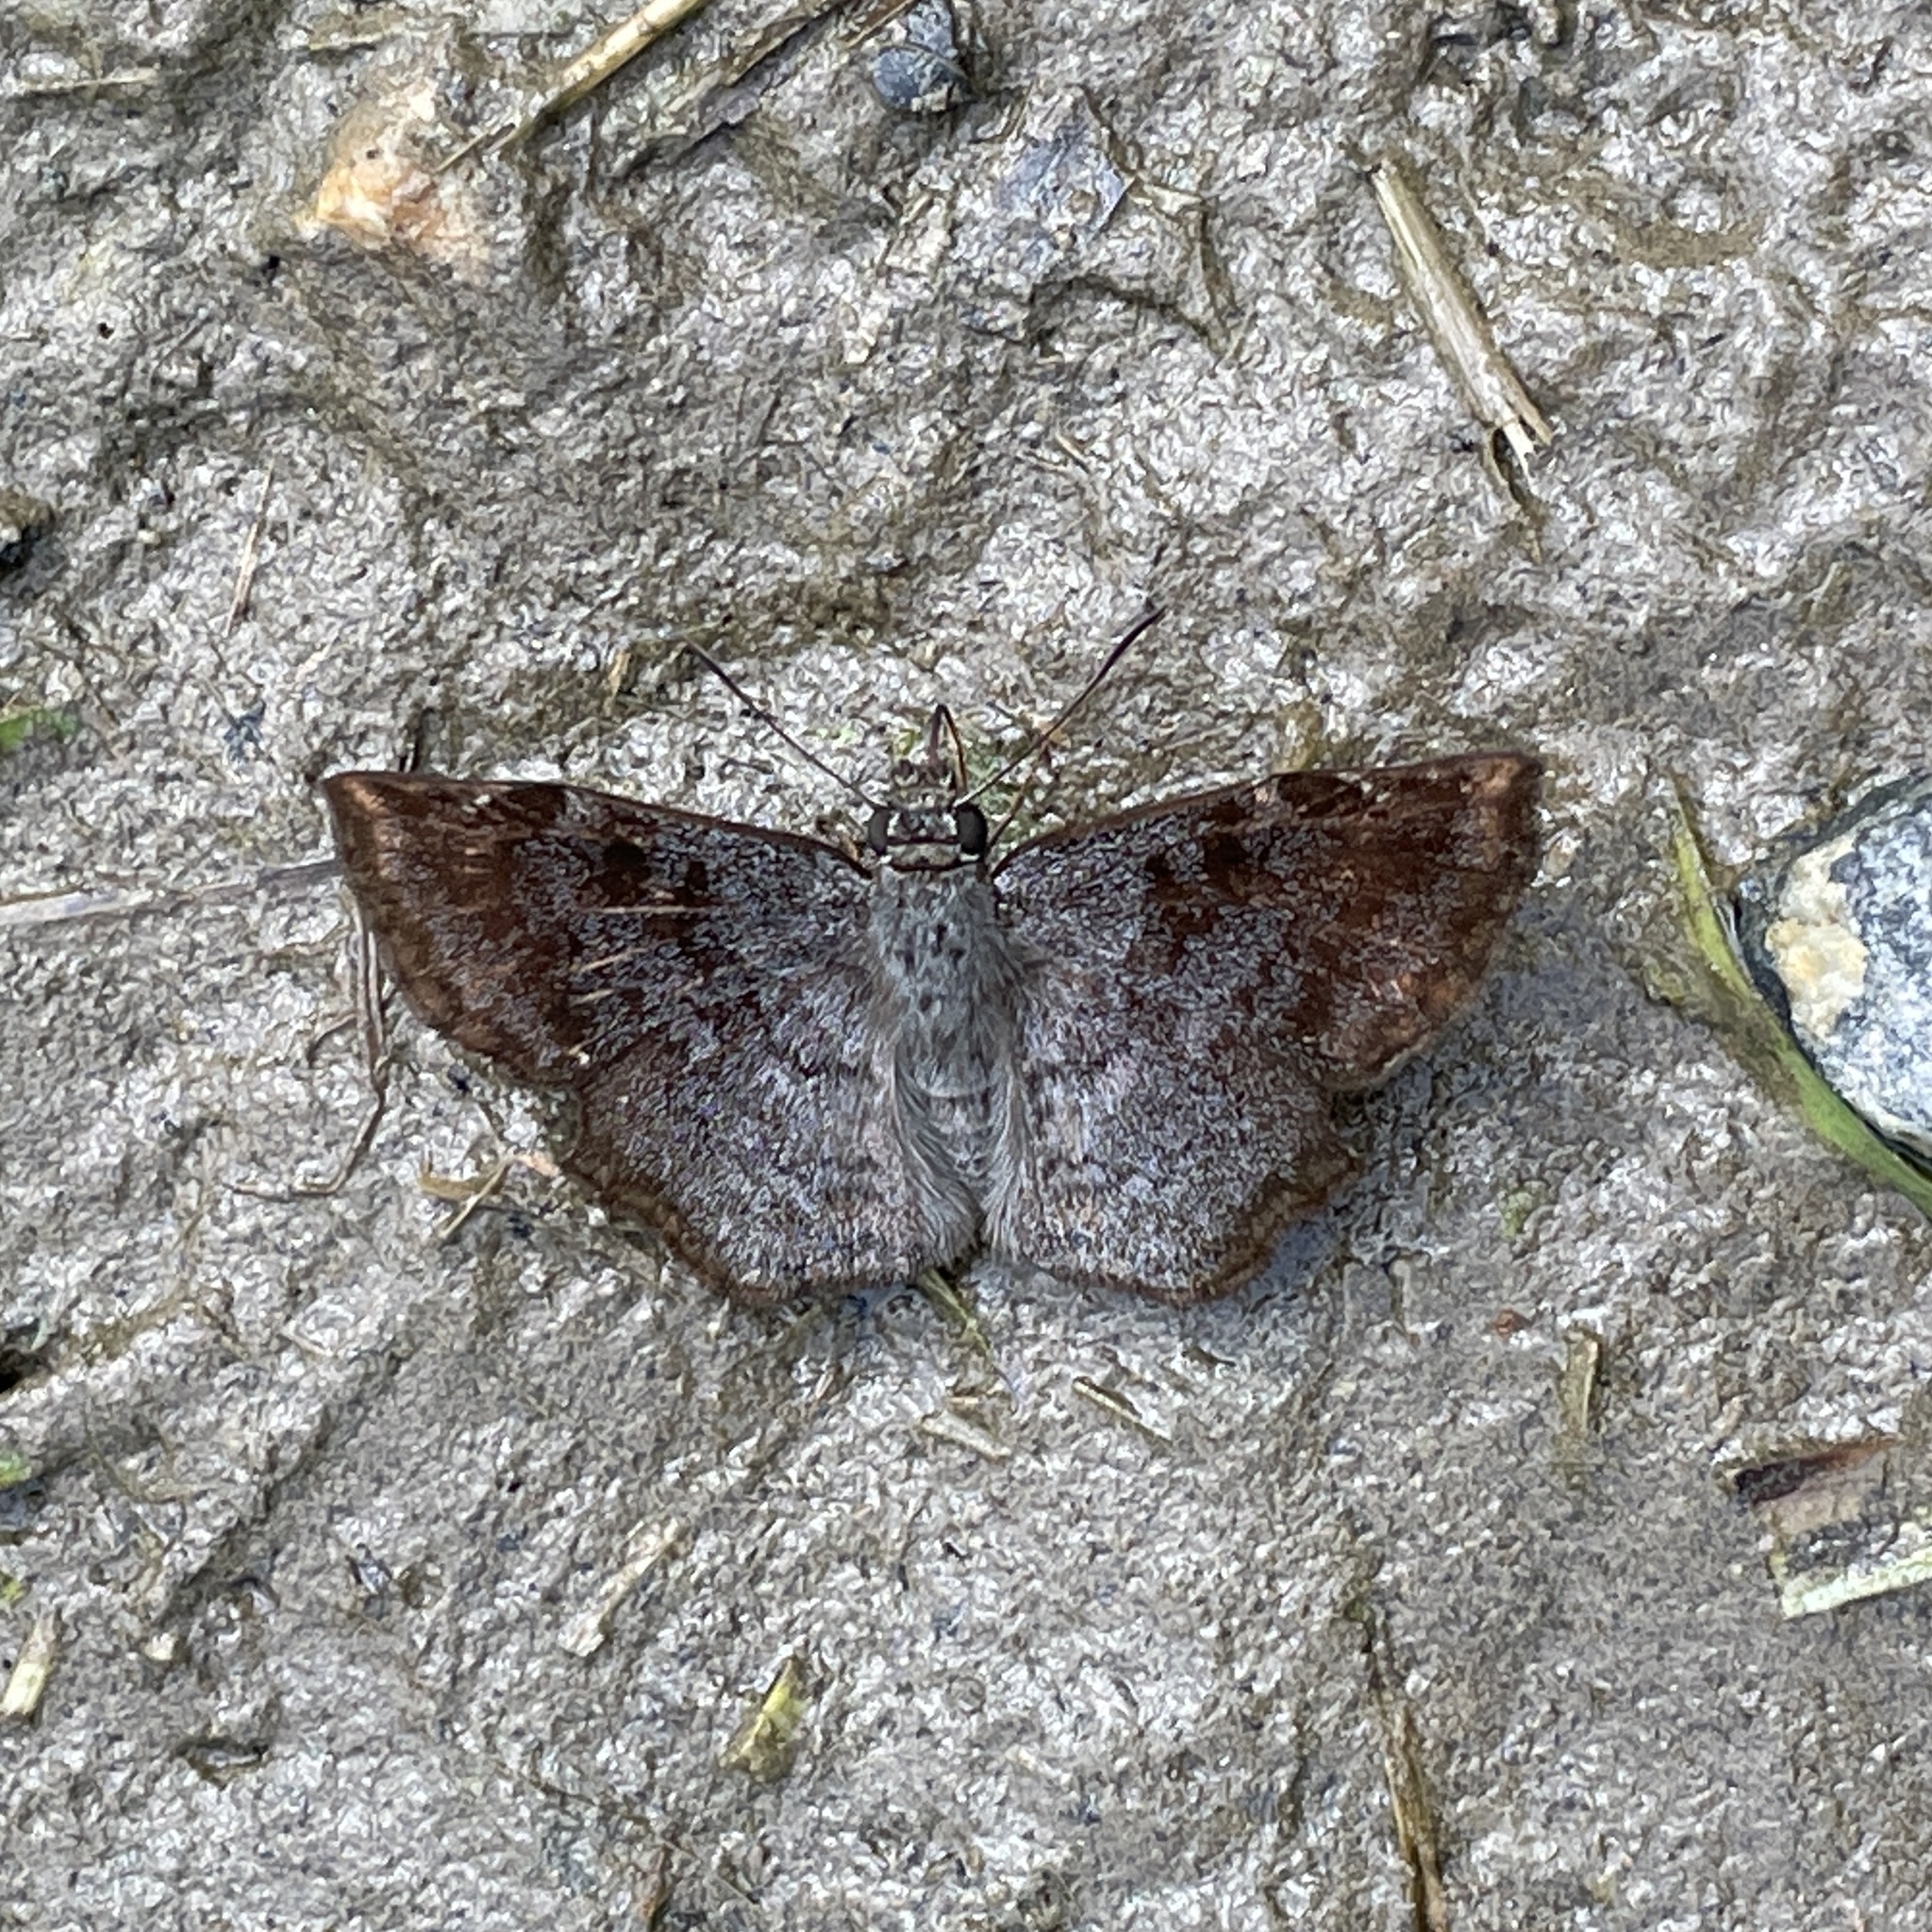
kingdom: Animalia
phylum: Arthropoda
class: Insecta
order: Lepidoptera
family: Hesperiidae
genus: Antigonus
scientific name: Antigonus erosus
